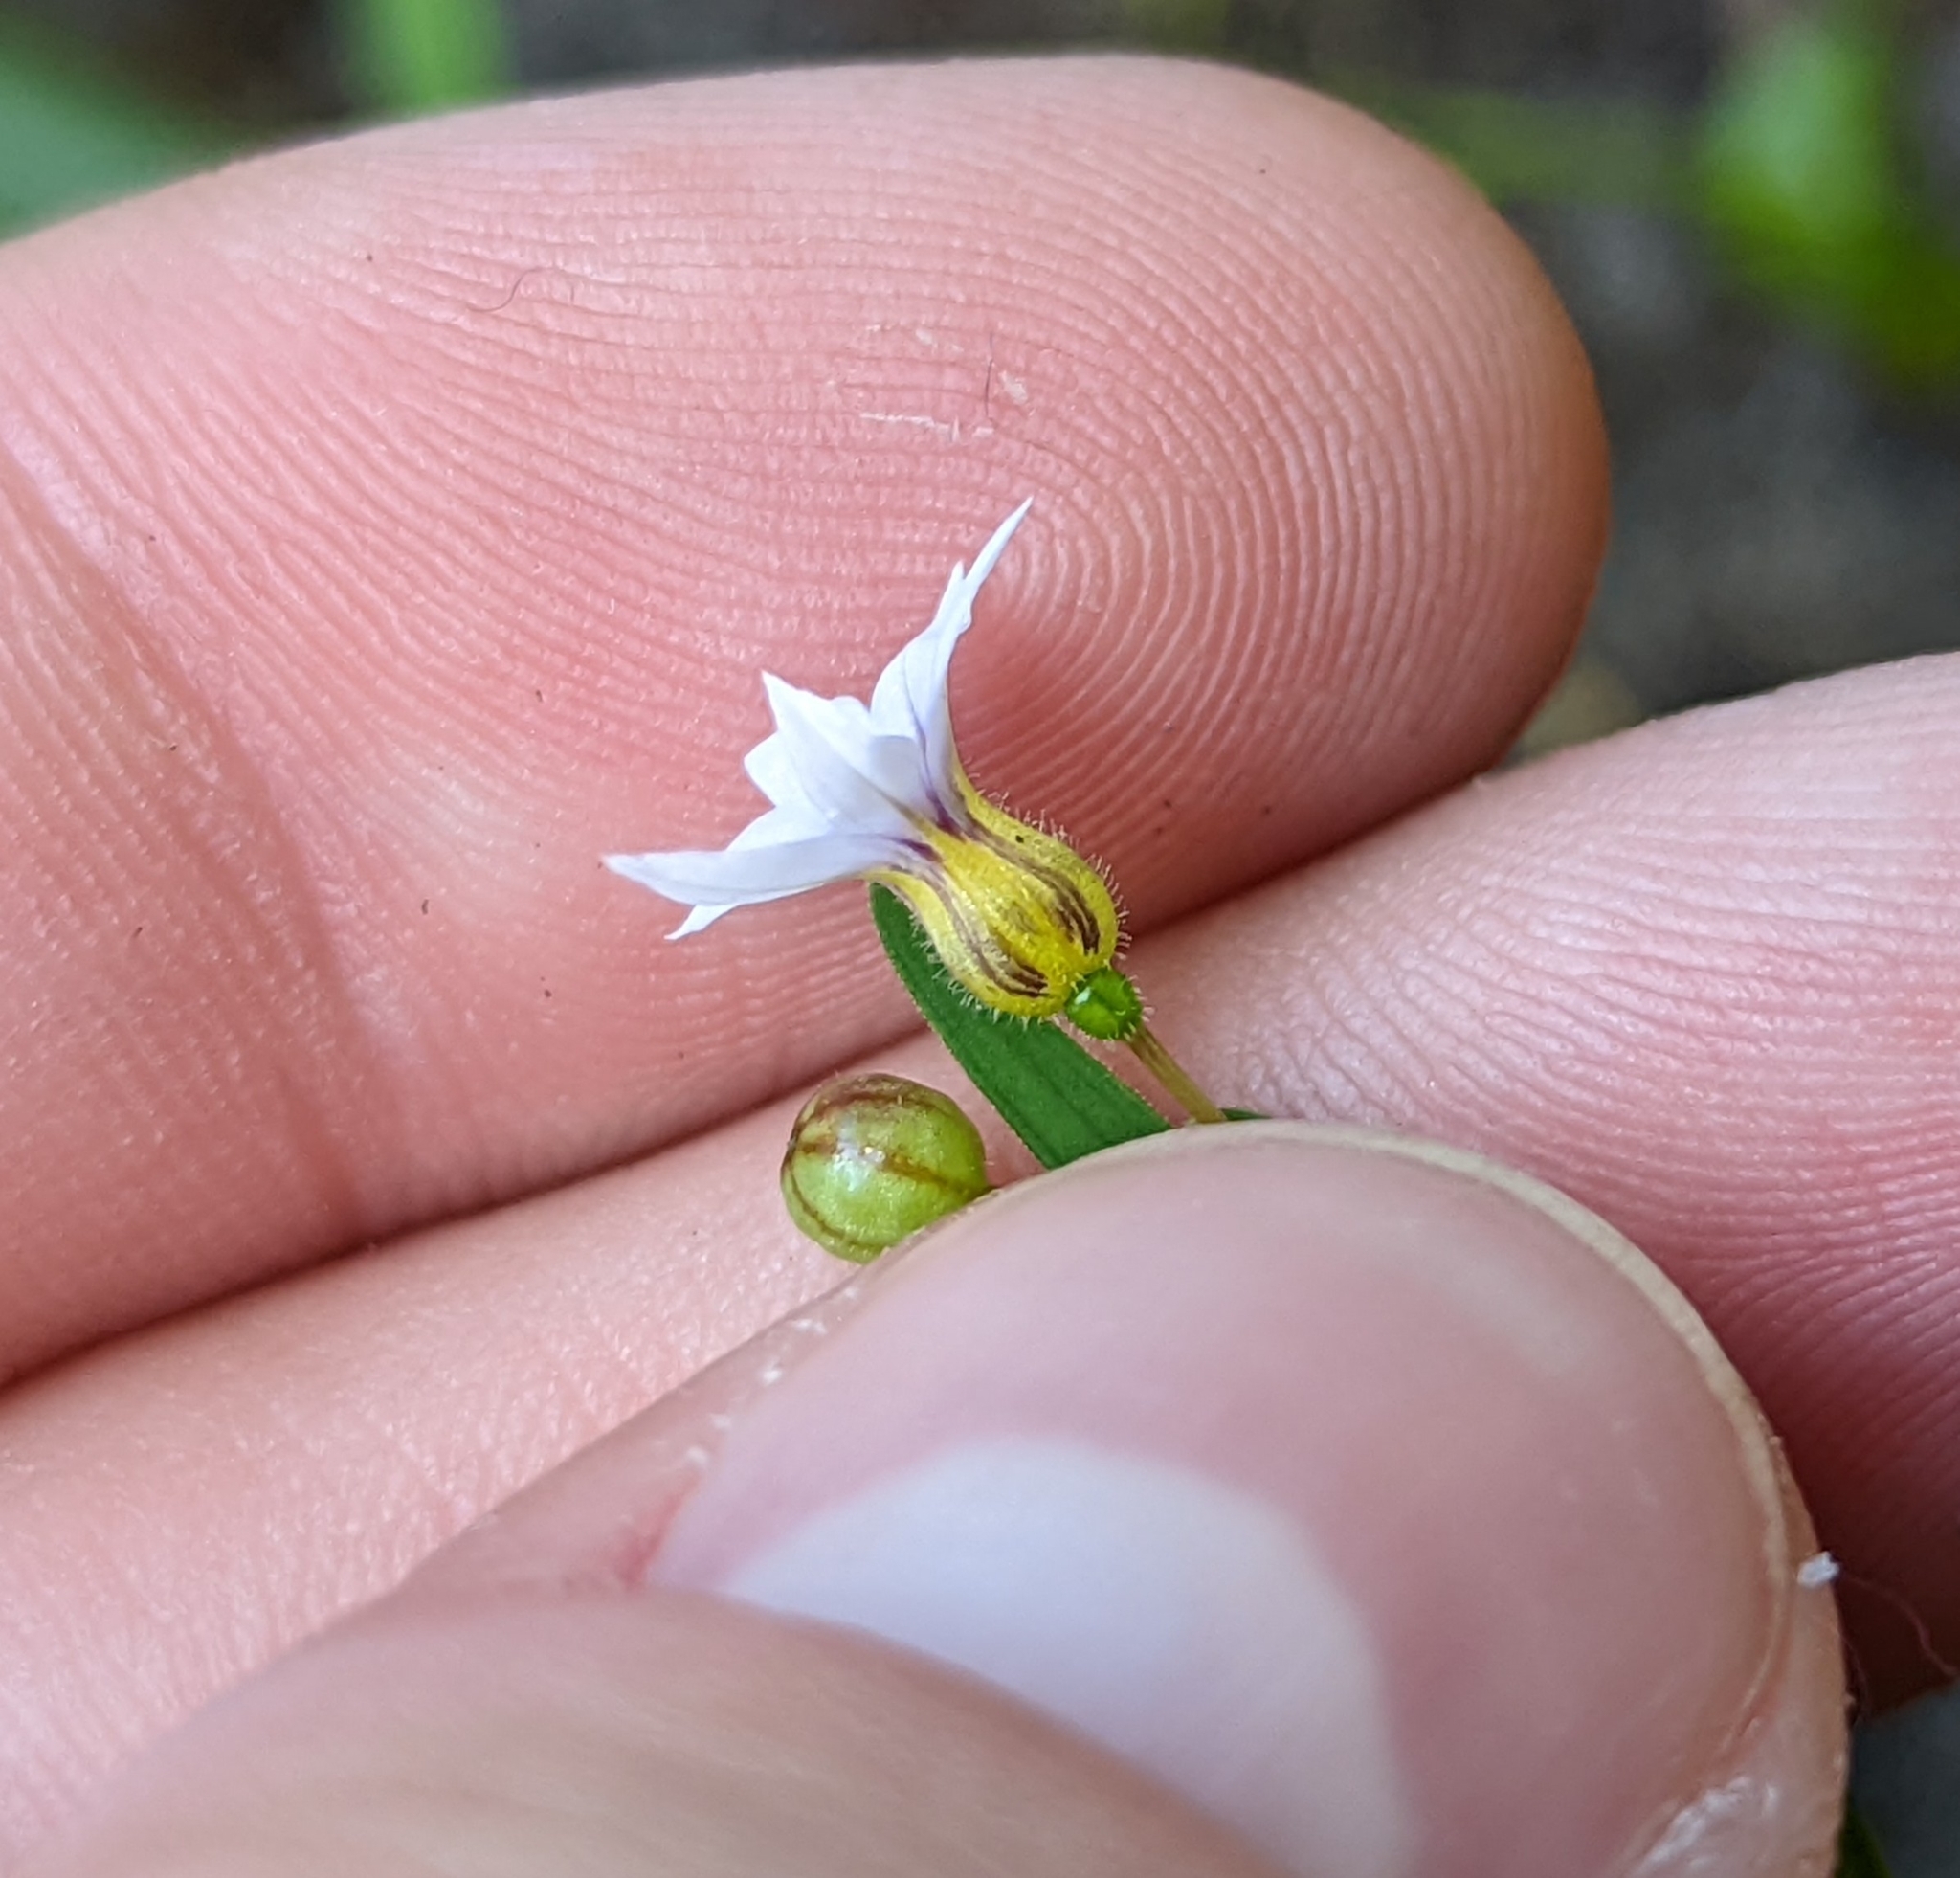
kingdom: Plantae
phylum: Tracheophyta
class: Liliopsida
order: Asparagales
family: Iridaceae
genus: Sisyrinchium
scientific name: Sisyrinchium micranthum
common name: Bermuda pigroot
